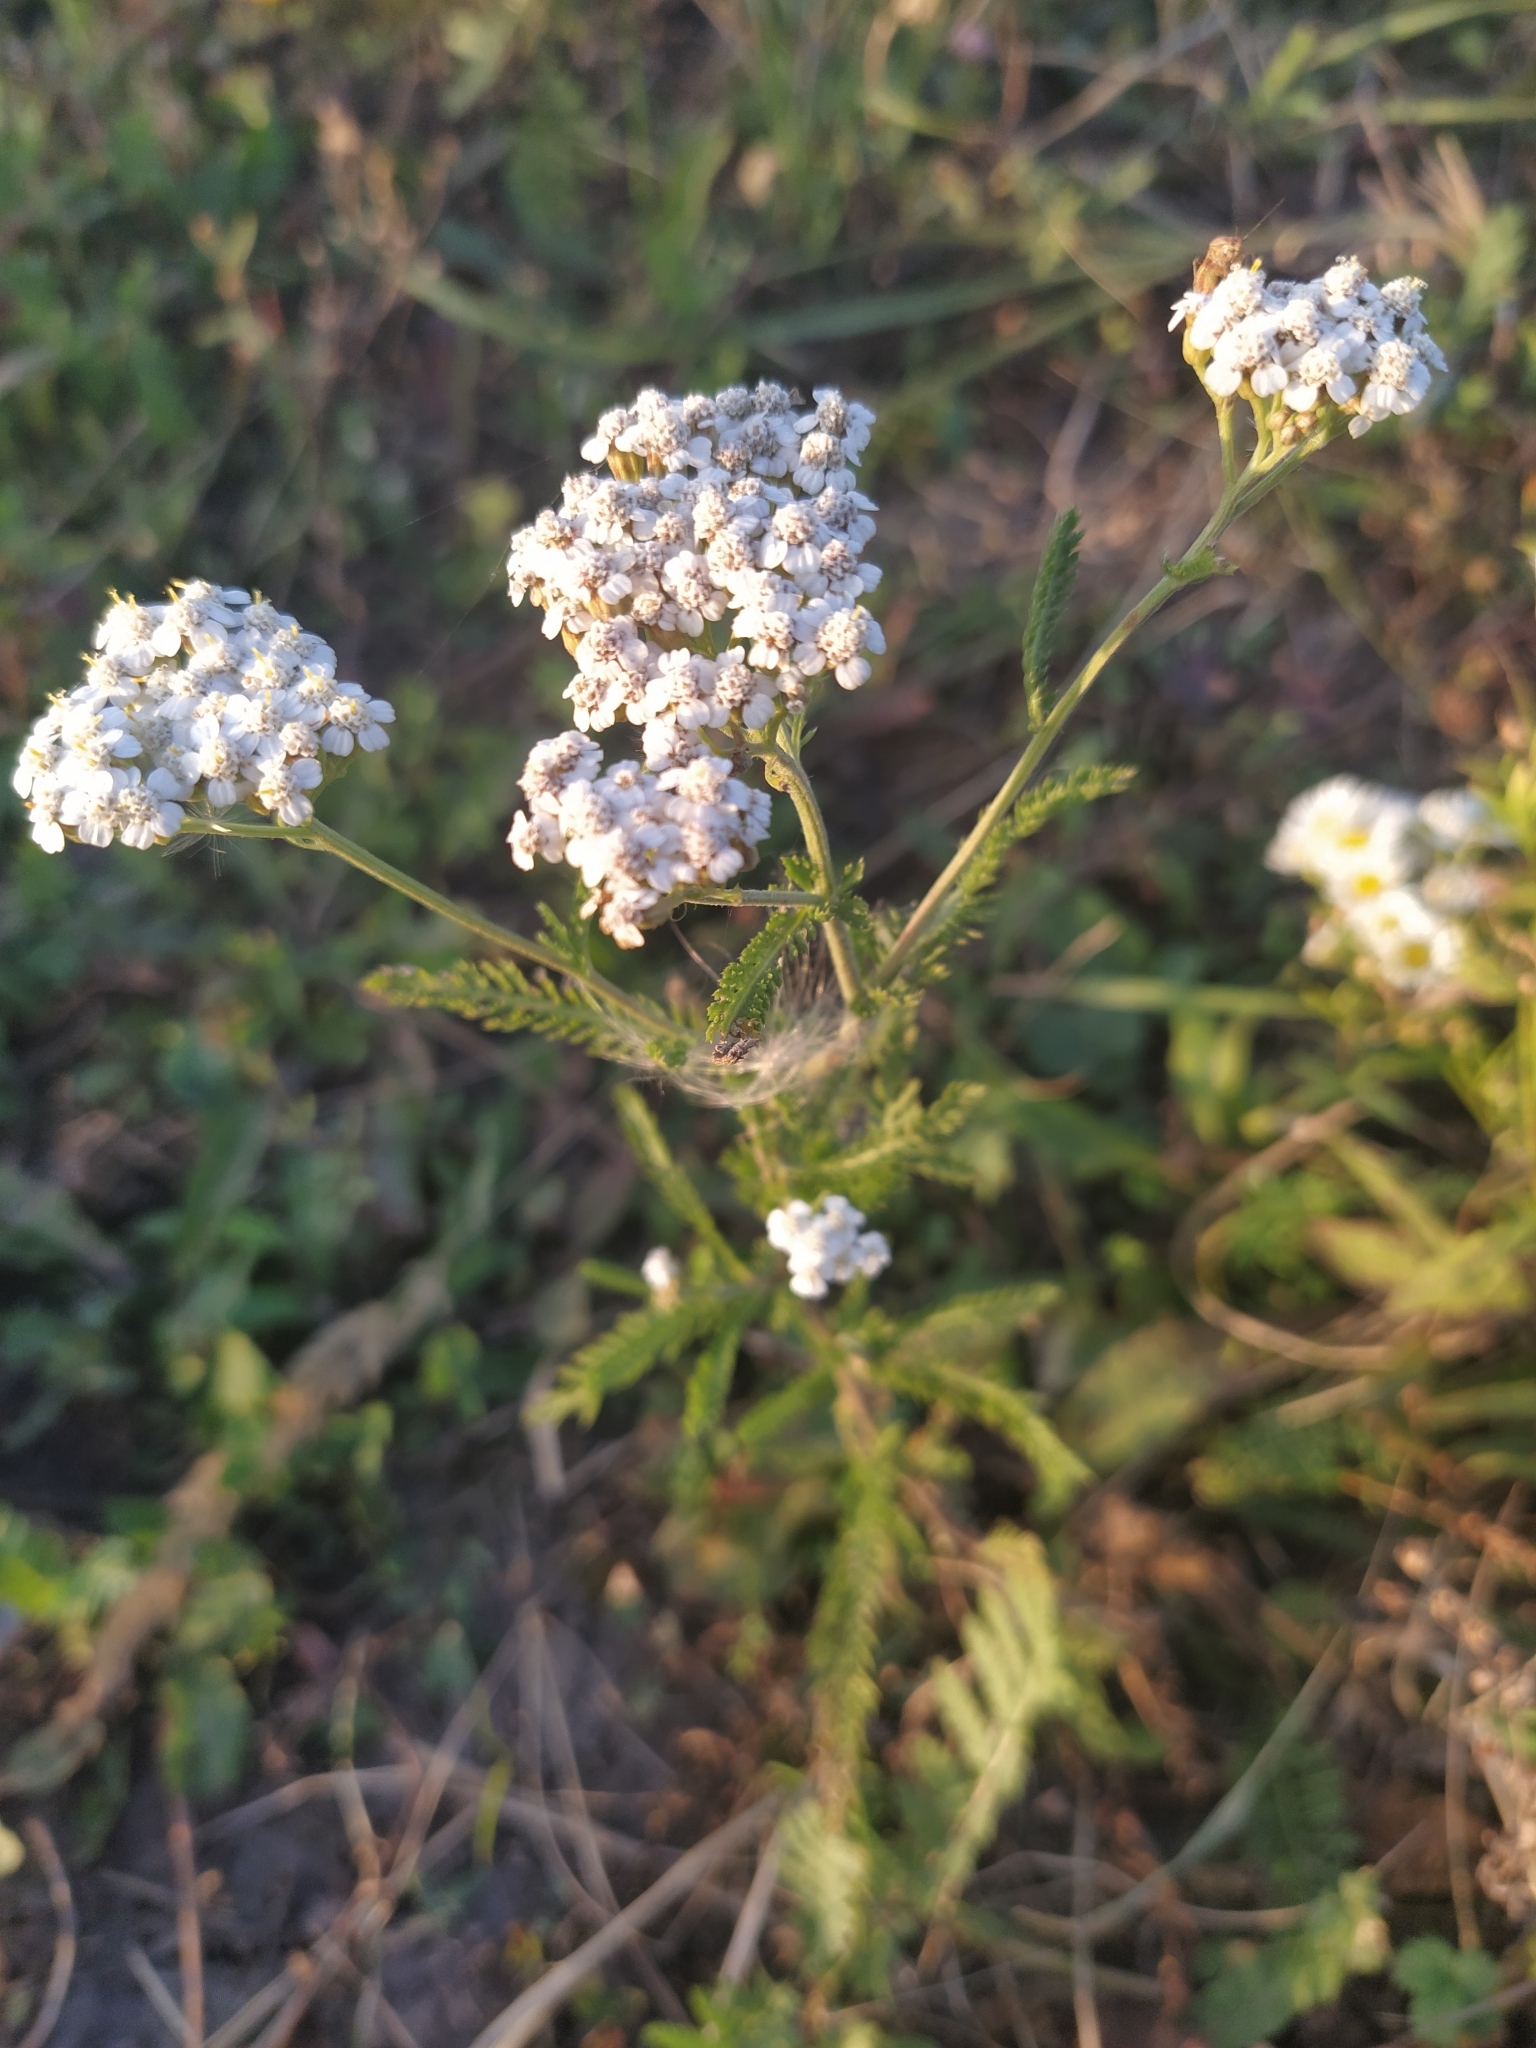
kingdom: Plantae
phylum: Tracheophyta
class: Magnoliopsida
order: Asterales
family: Asteraceae
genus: Achillea
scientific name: Achillea millefolium
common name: Yarrow
